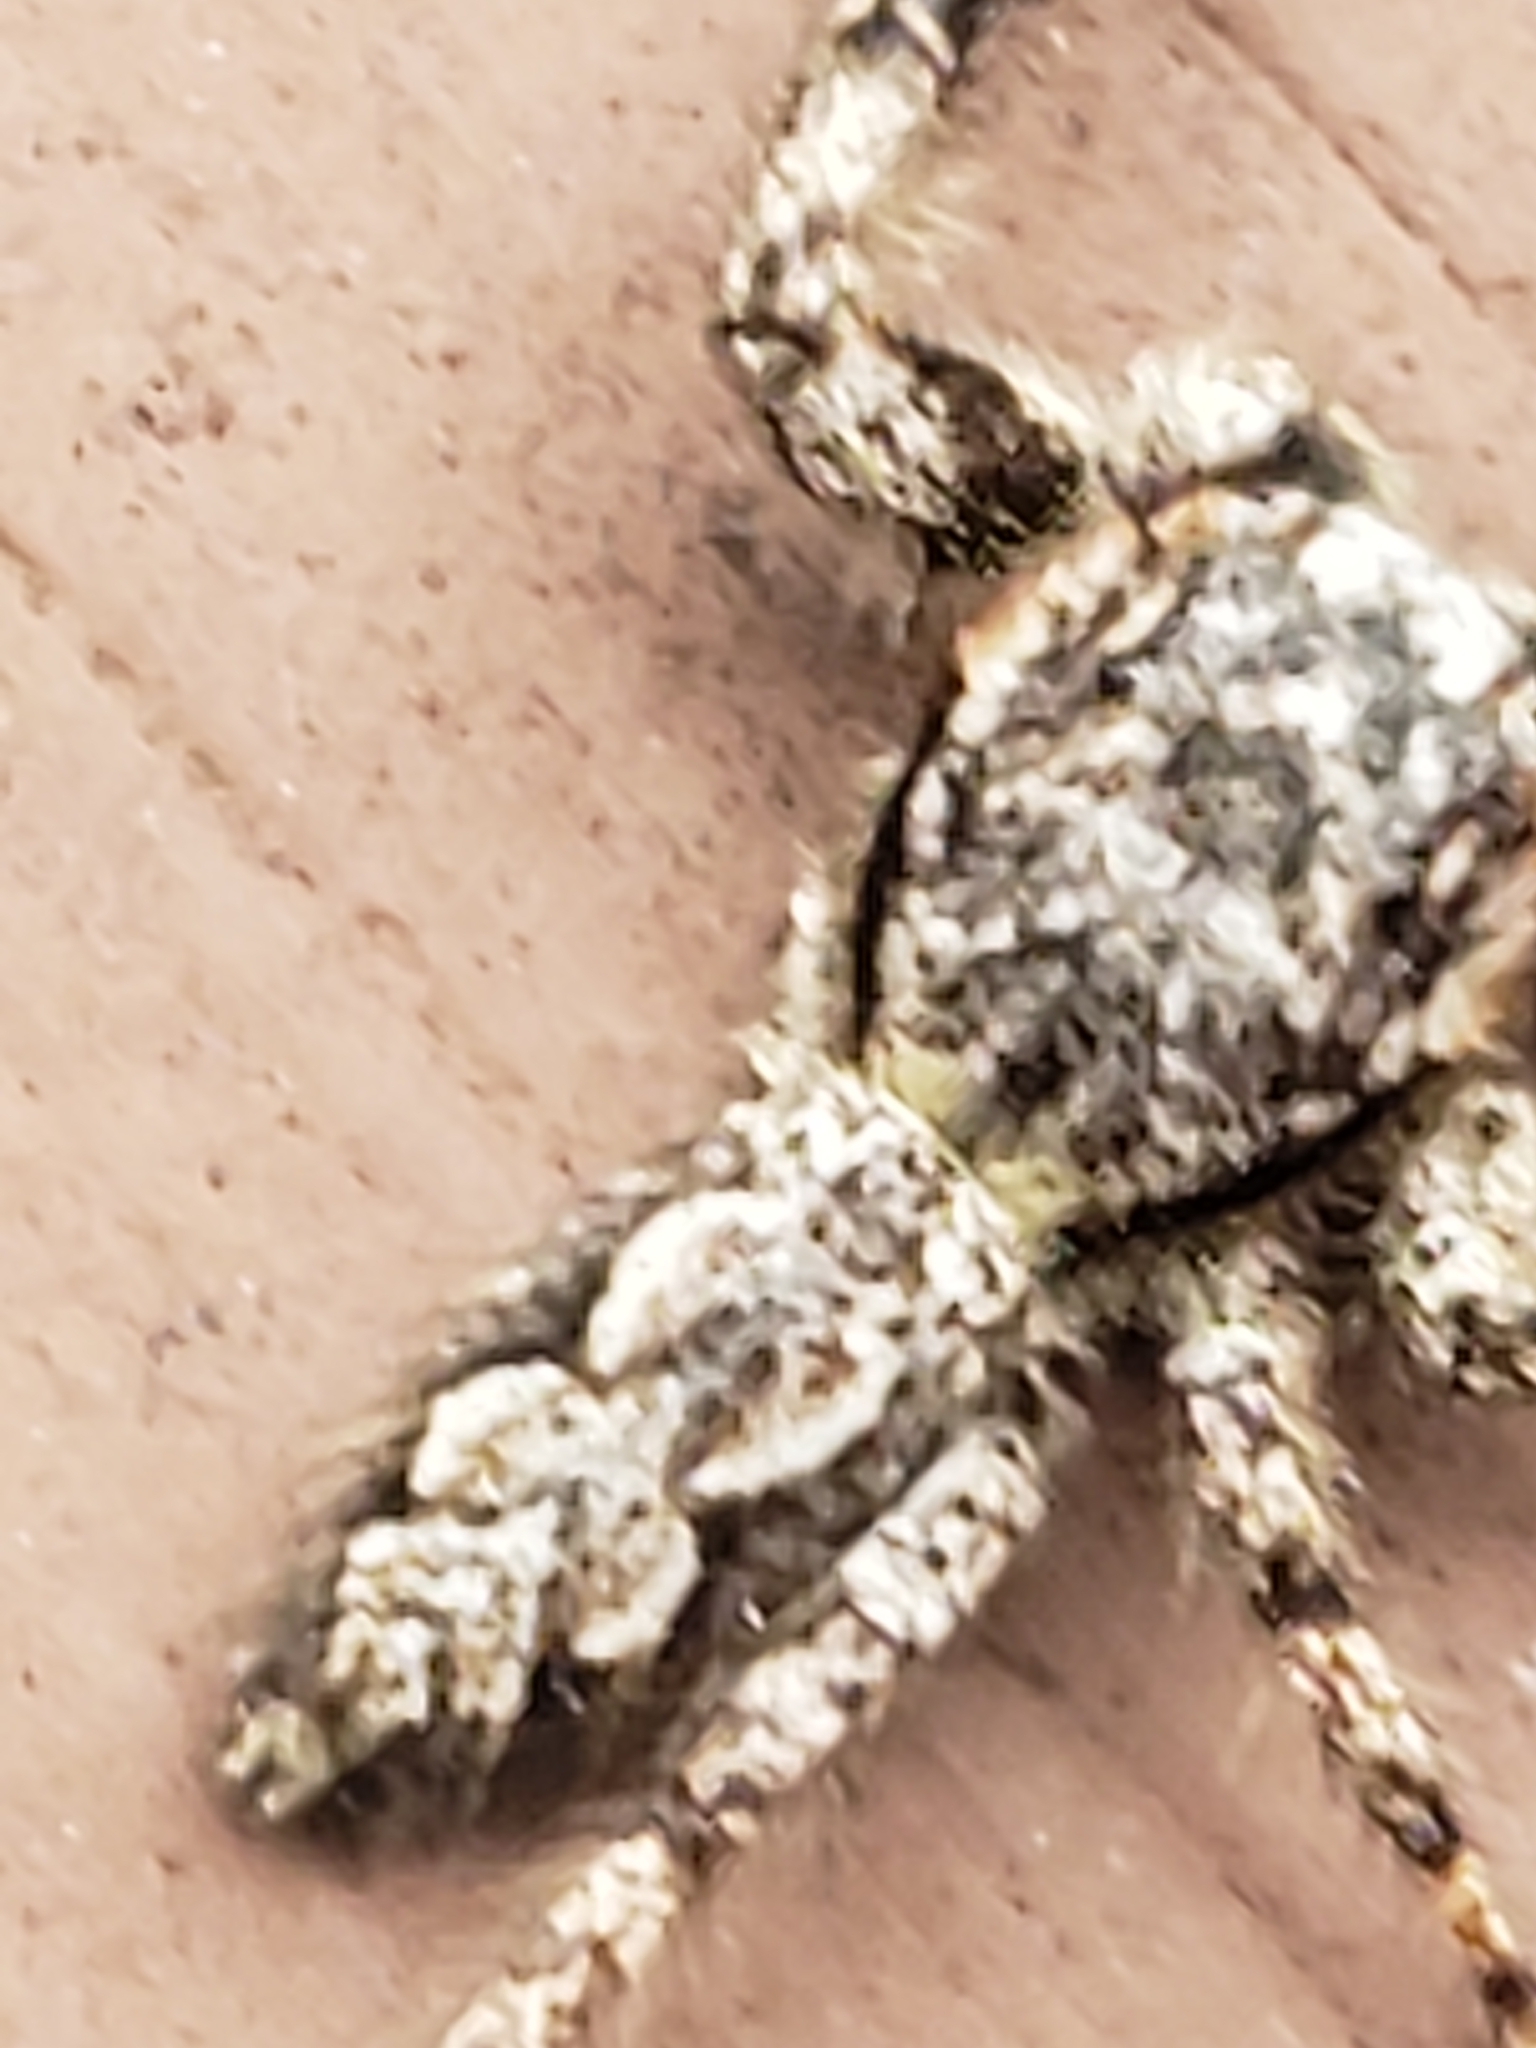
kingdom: Animalia
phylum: Arthropoda
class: Arachnida
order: Araneae
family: Salticidae
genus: Platycryptus
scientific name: Platycryptus undatus
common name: Tan jumping spider
